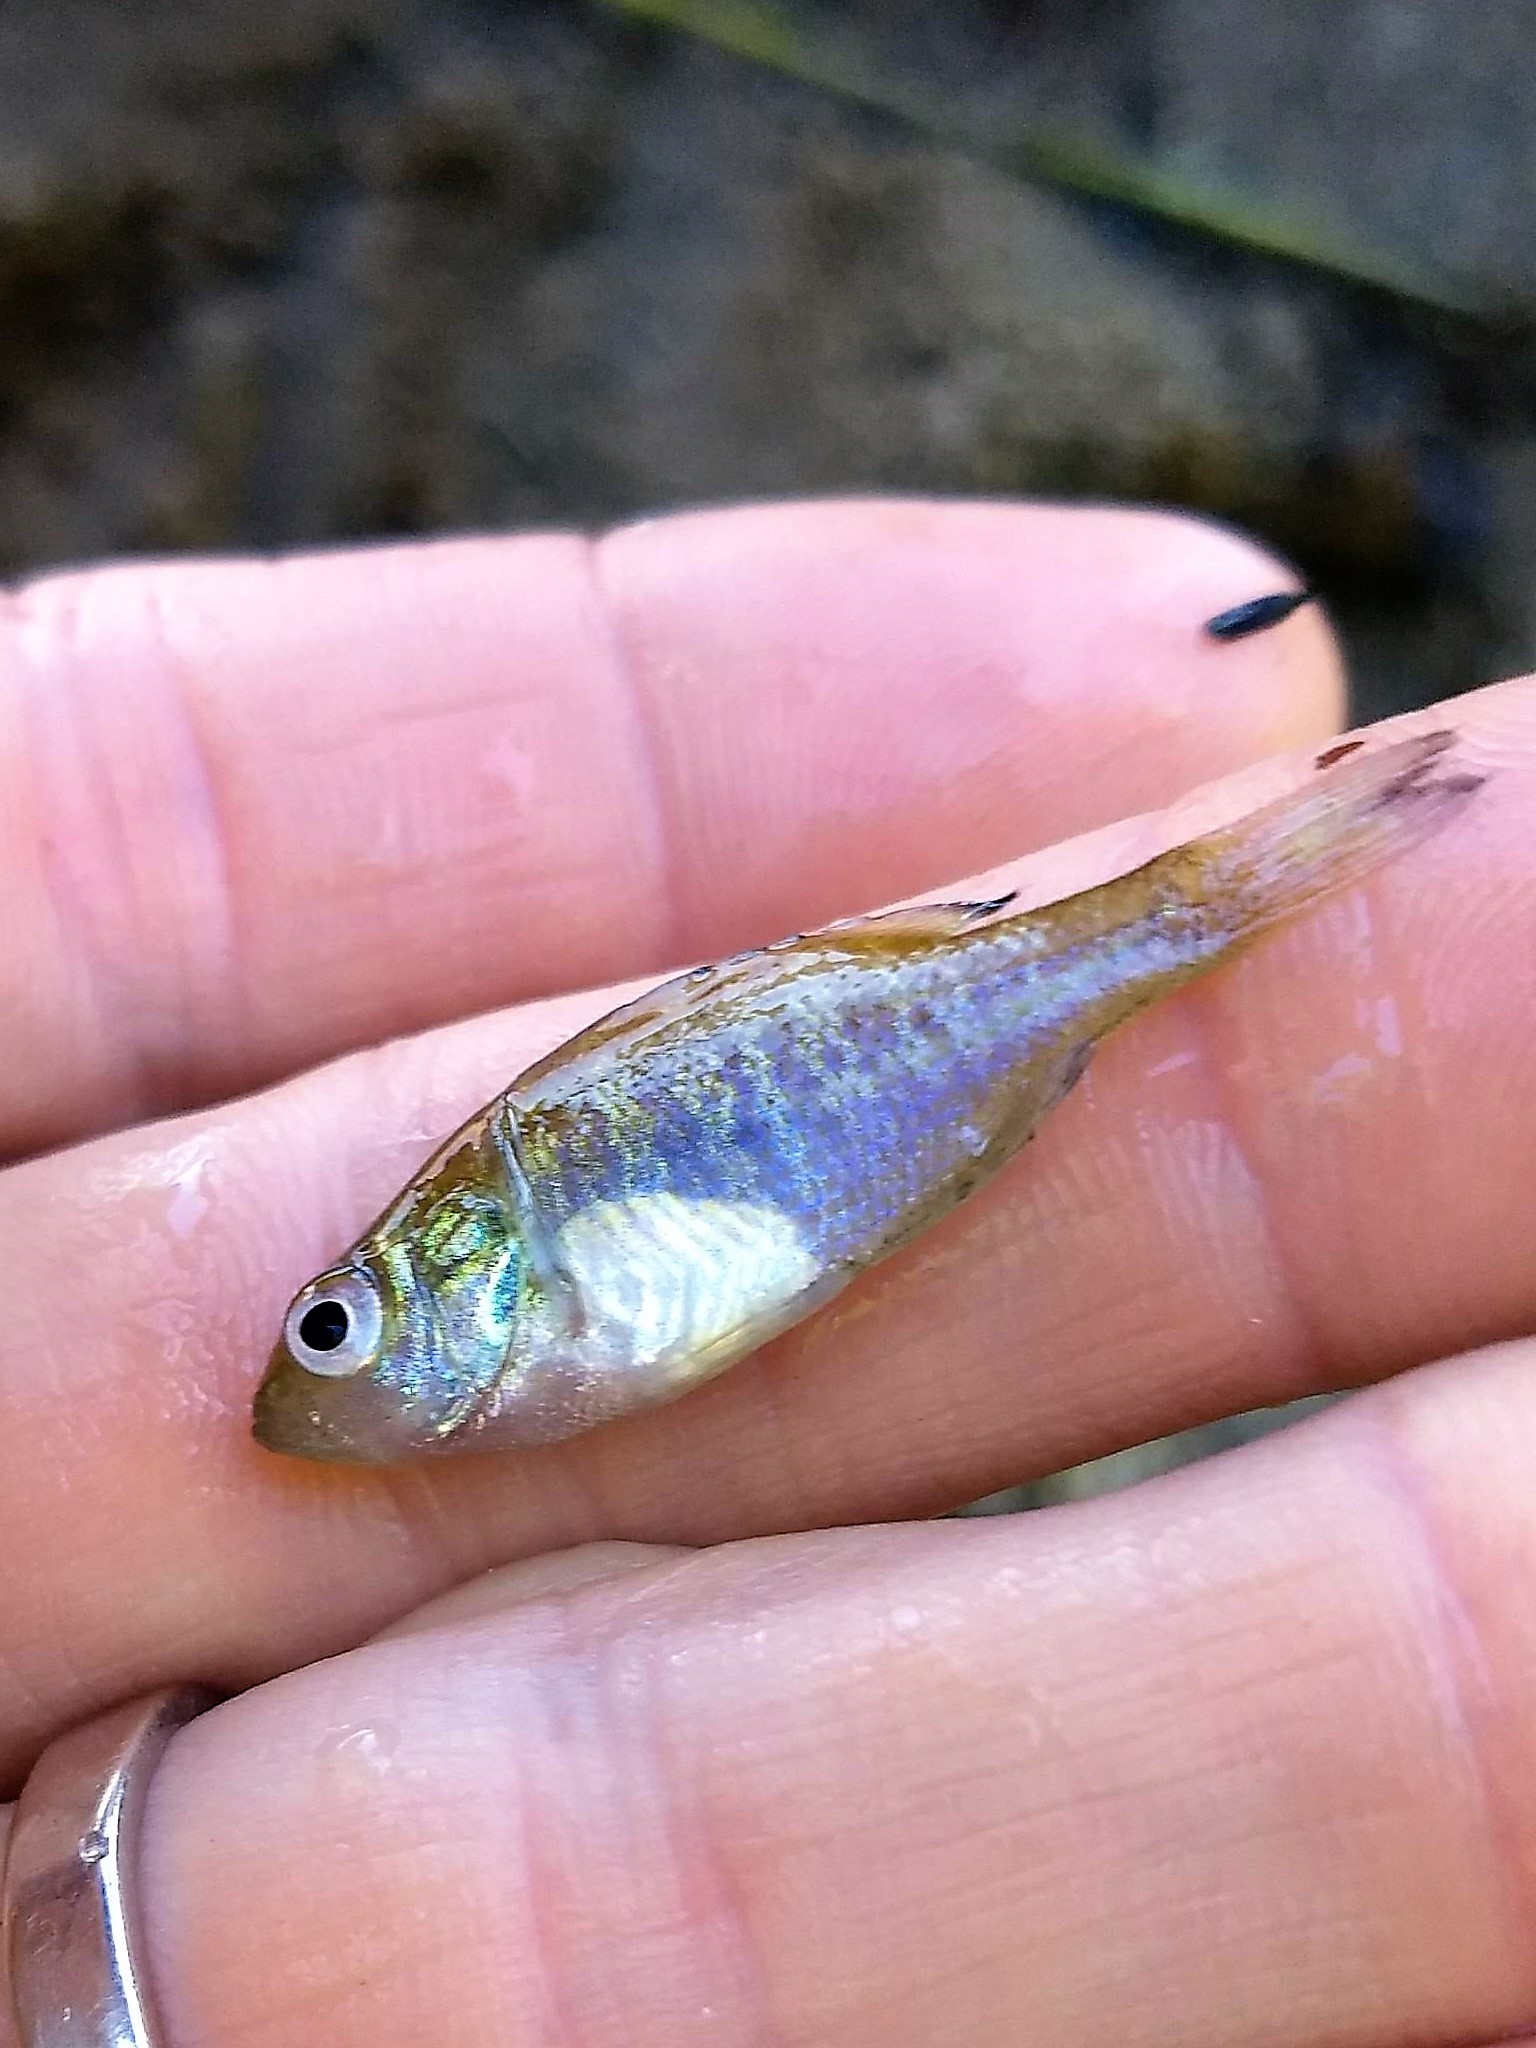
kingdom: Animalia
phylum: Chordata
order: Perciformes
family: Centrarchidae
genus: Lepomis
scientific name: Lepomis macrochirus
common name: Bluegill
